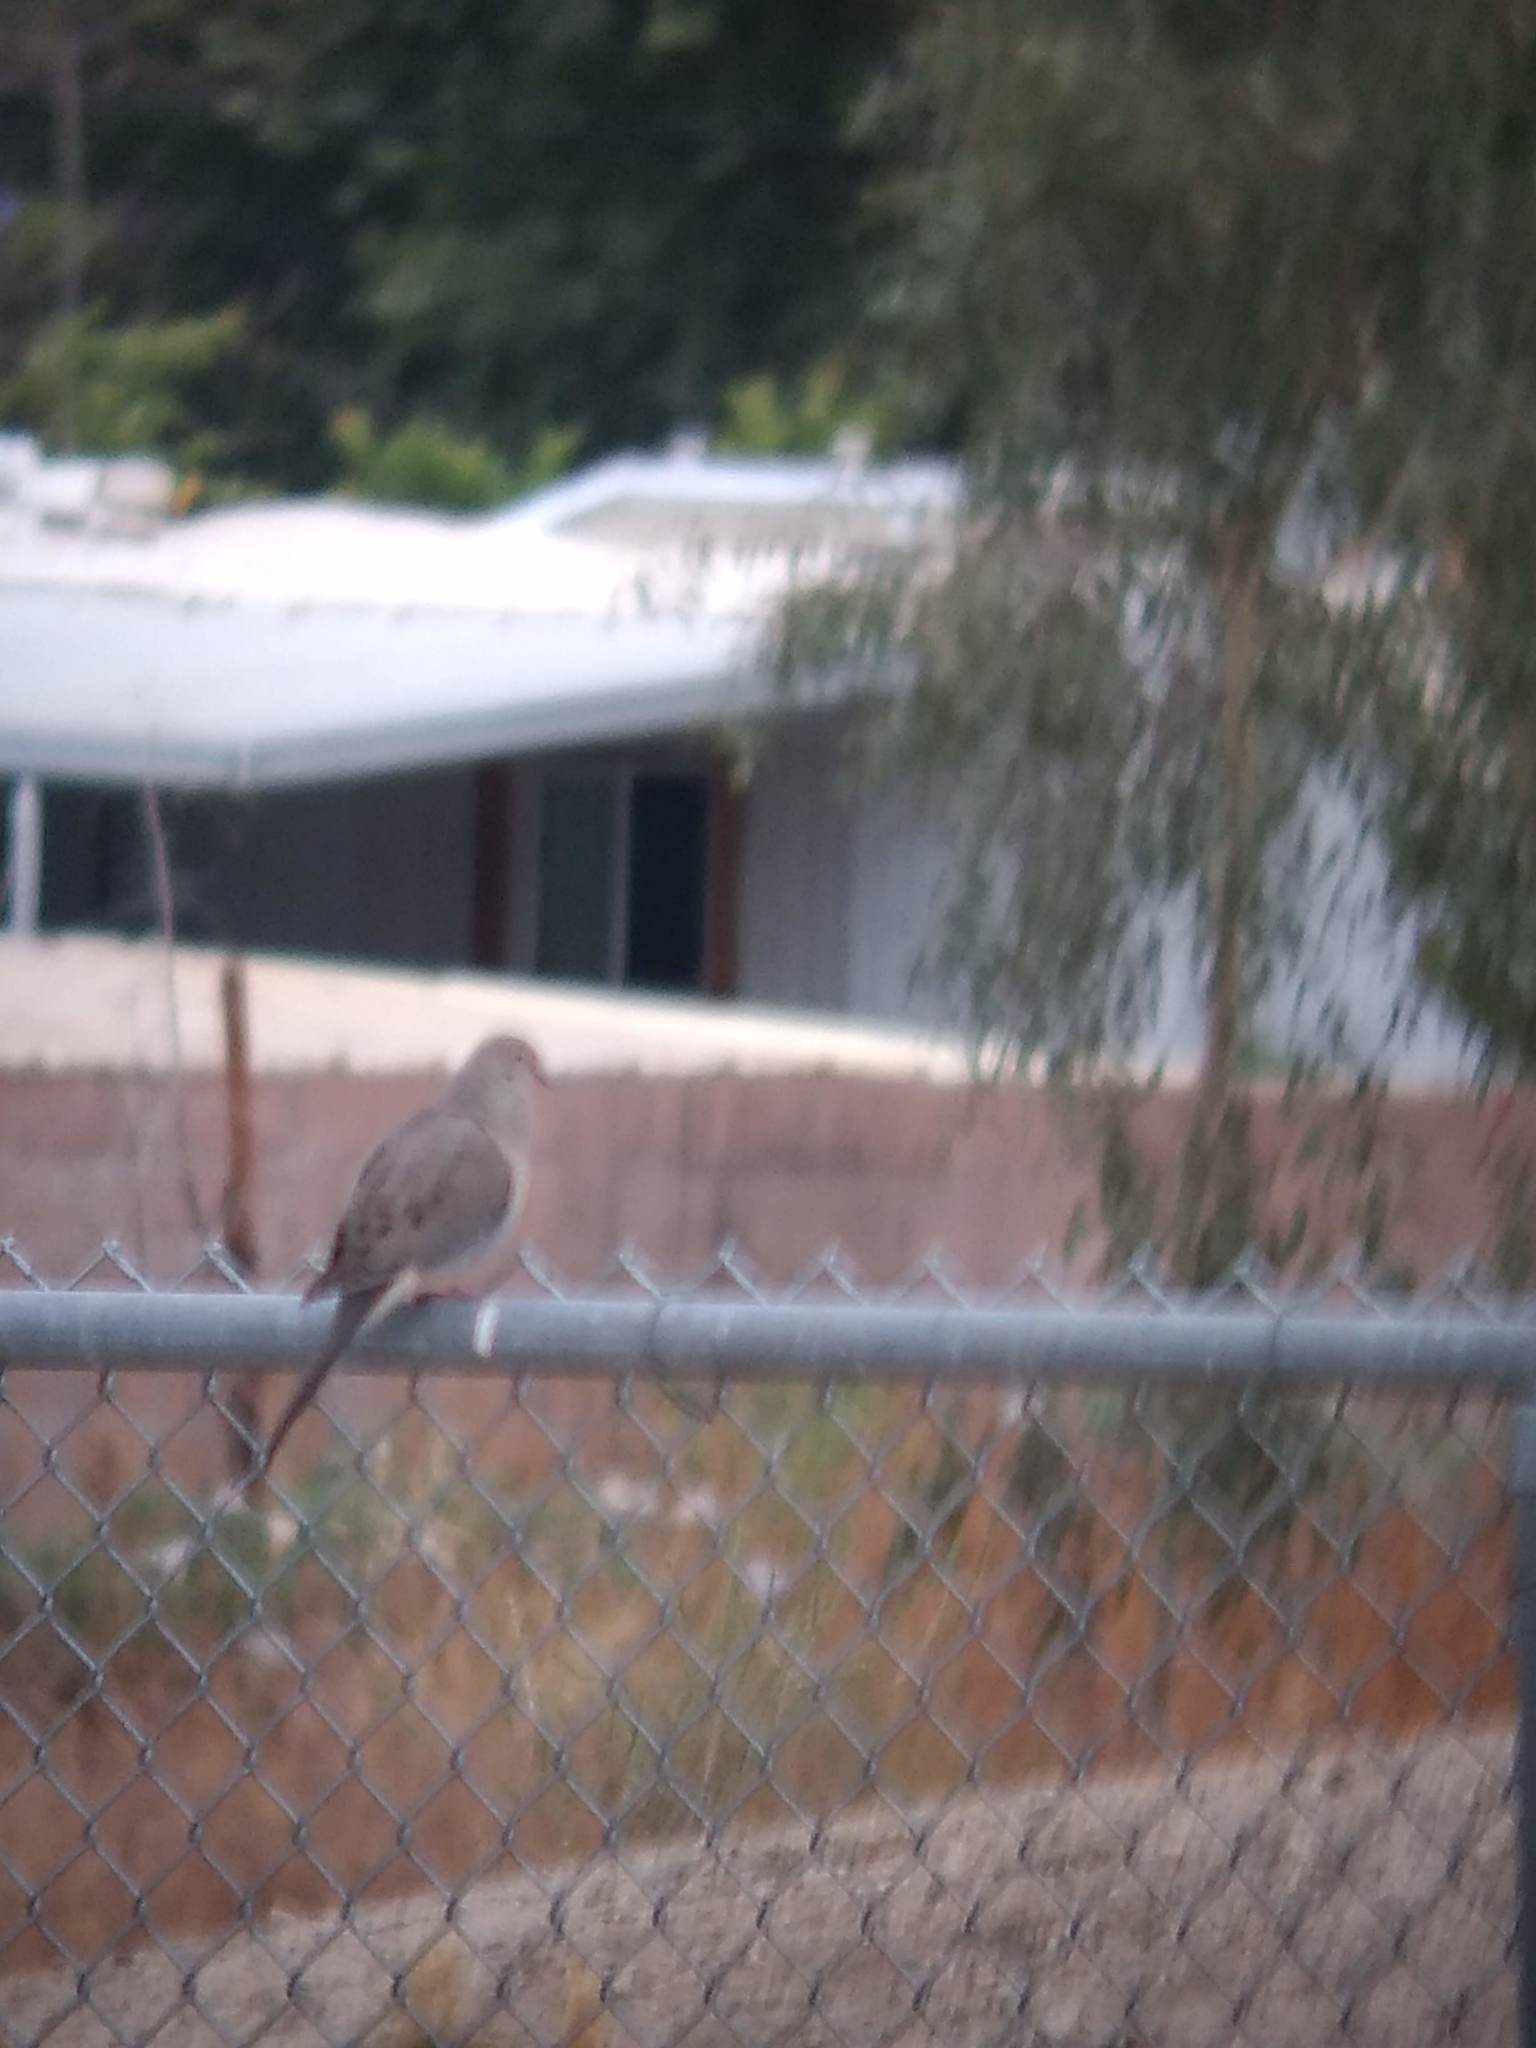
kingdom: Animalia
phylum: Chordata
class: Aves
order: Columbiformes
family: Columbidae
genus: Zenaida
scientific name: Zenaida macroura
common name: Mourning dove
